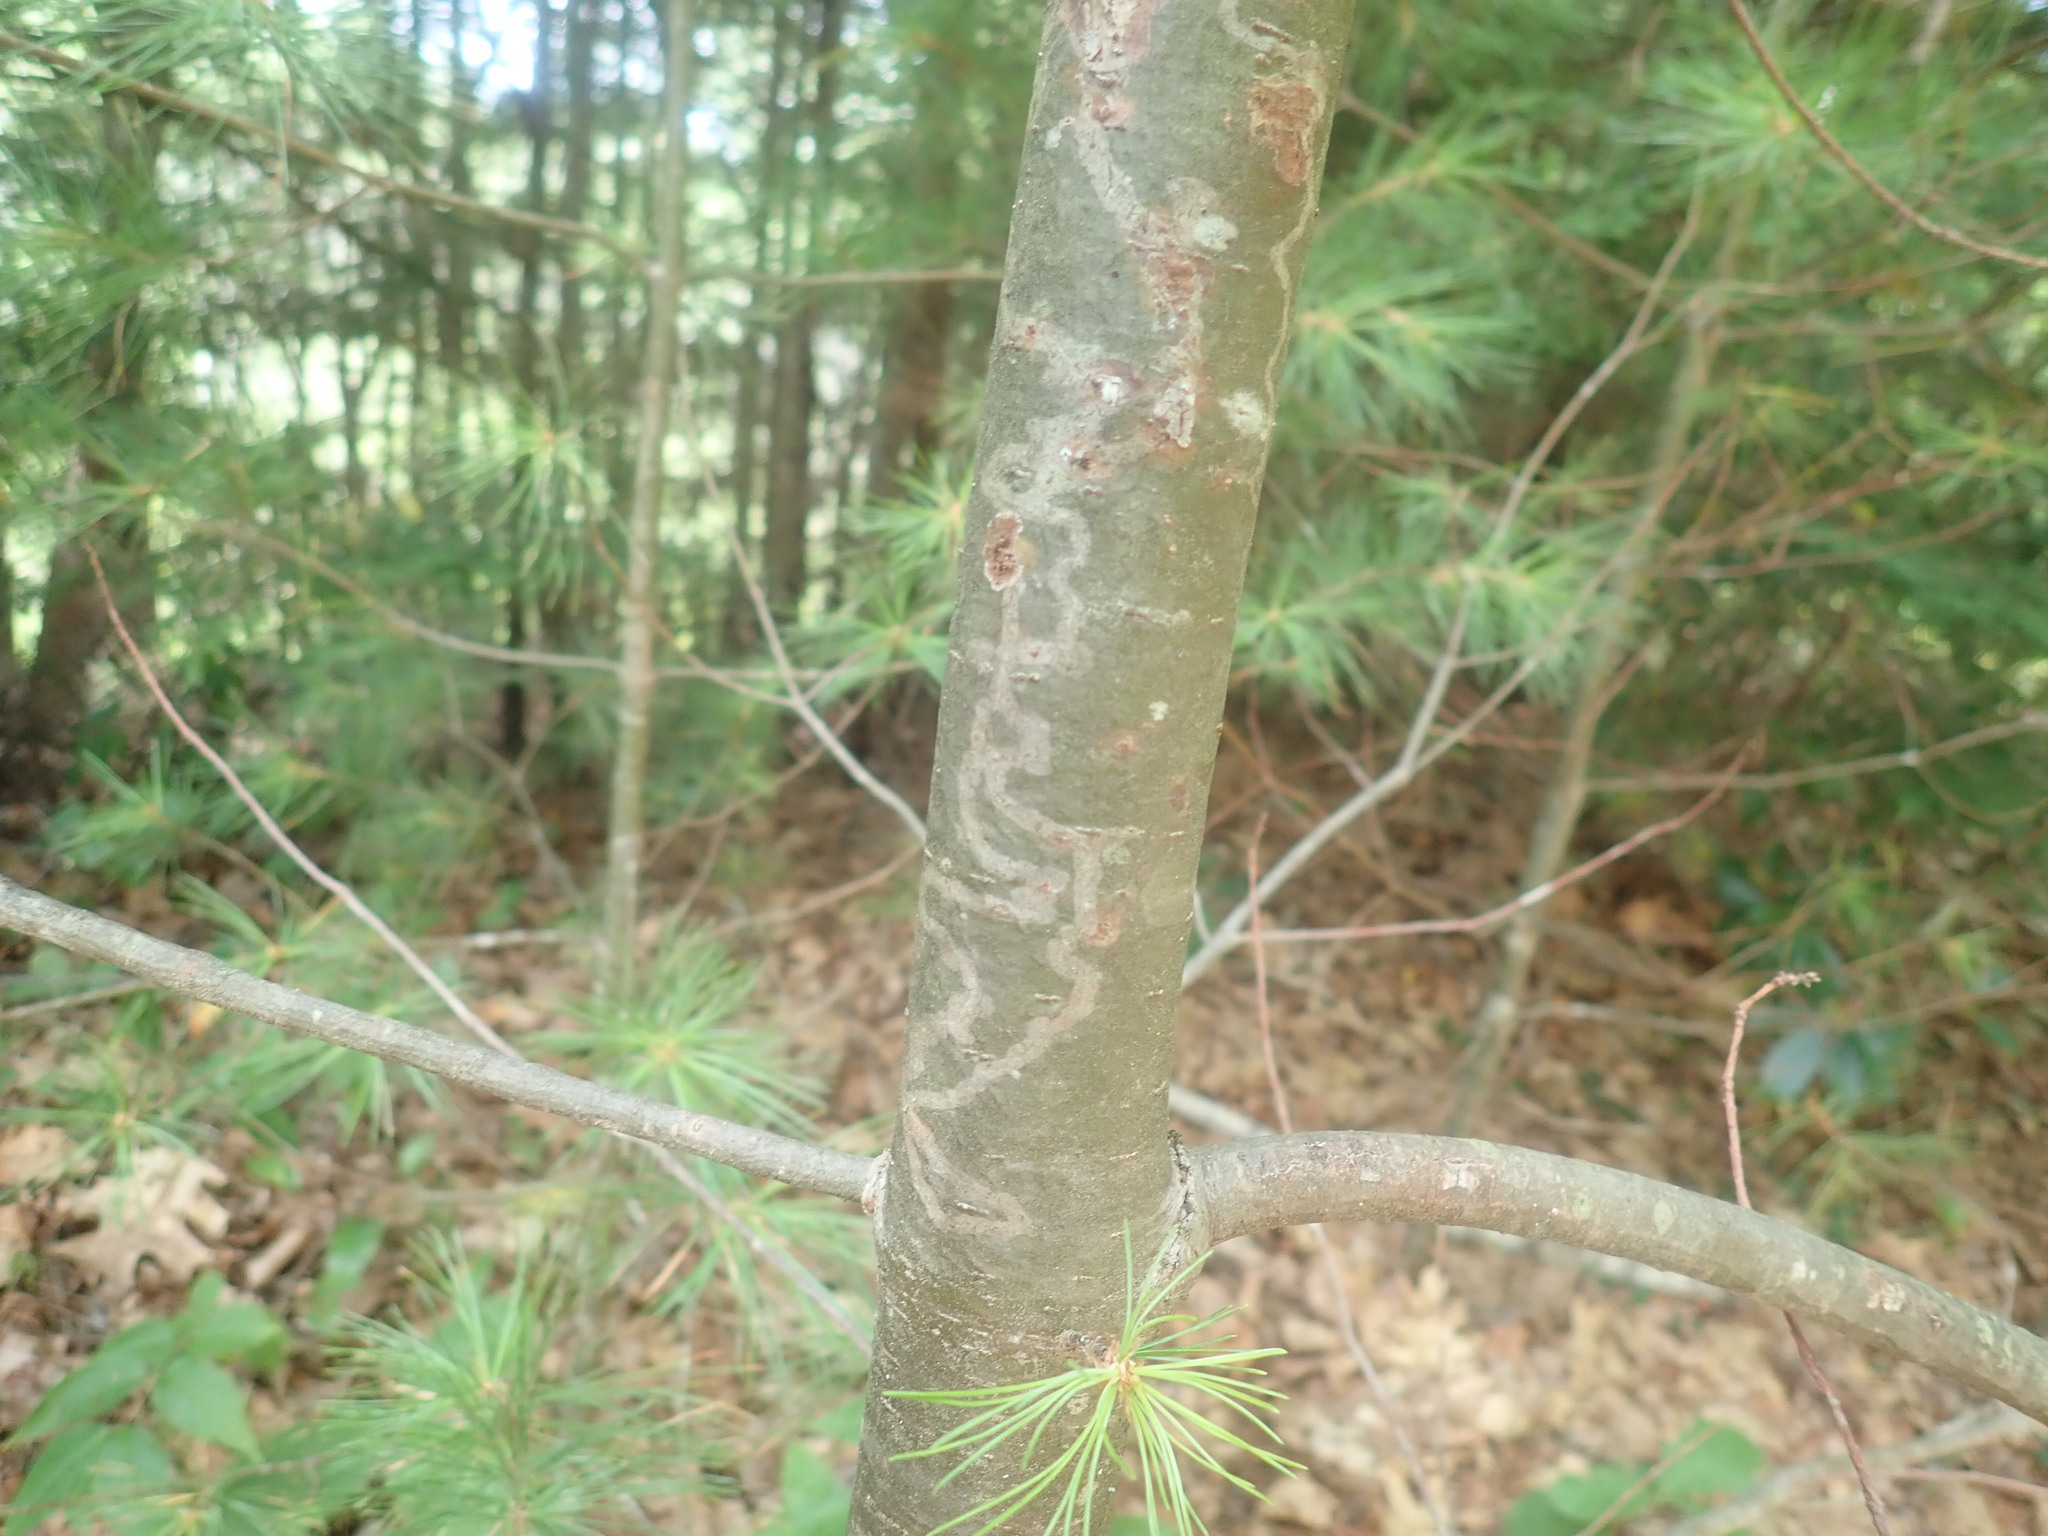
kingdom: Animalia
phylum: Arthropoda
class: Insecta
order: Lepidoptera
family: Gracillariidae
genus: Marmara
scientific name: Marmara fasciella
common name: White pine barkminer moth
